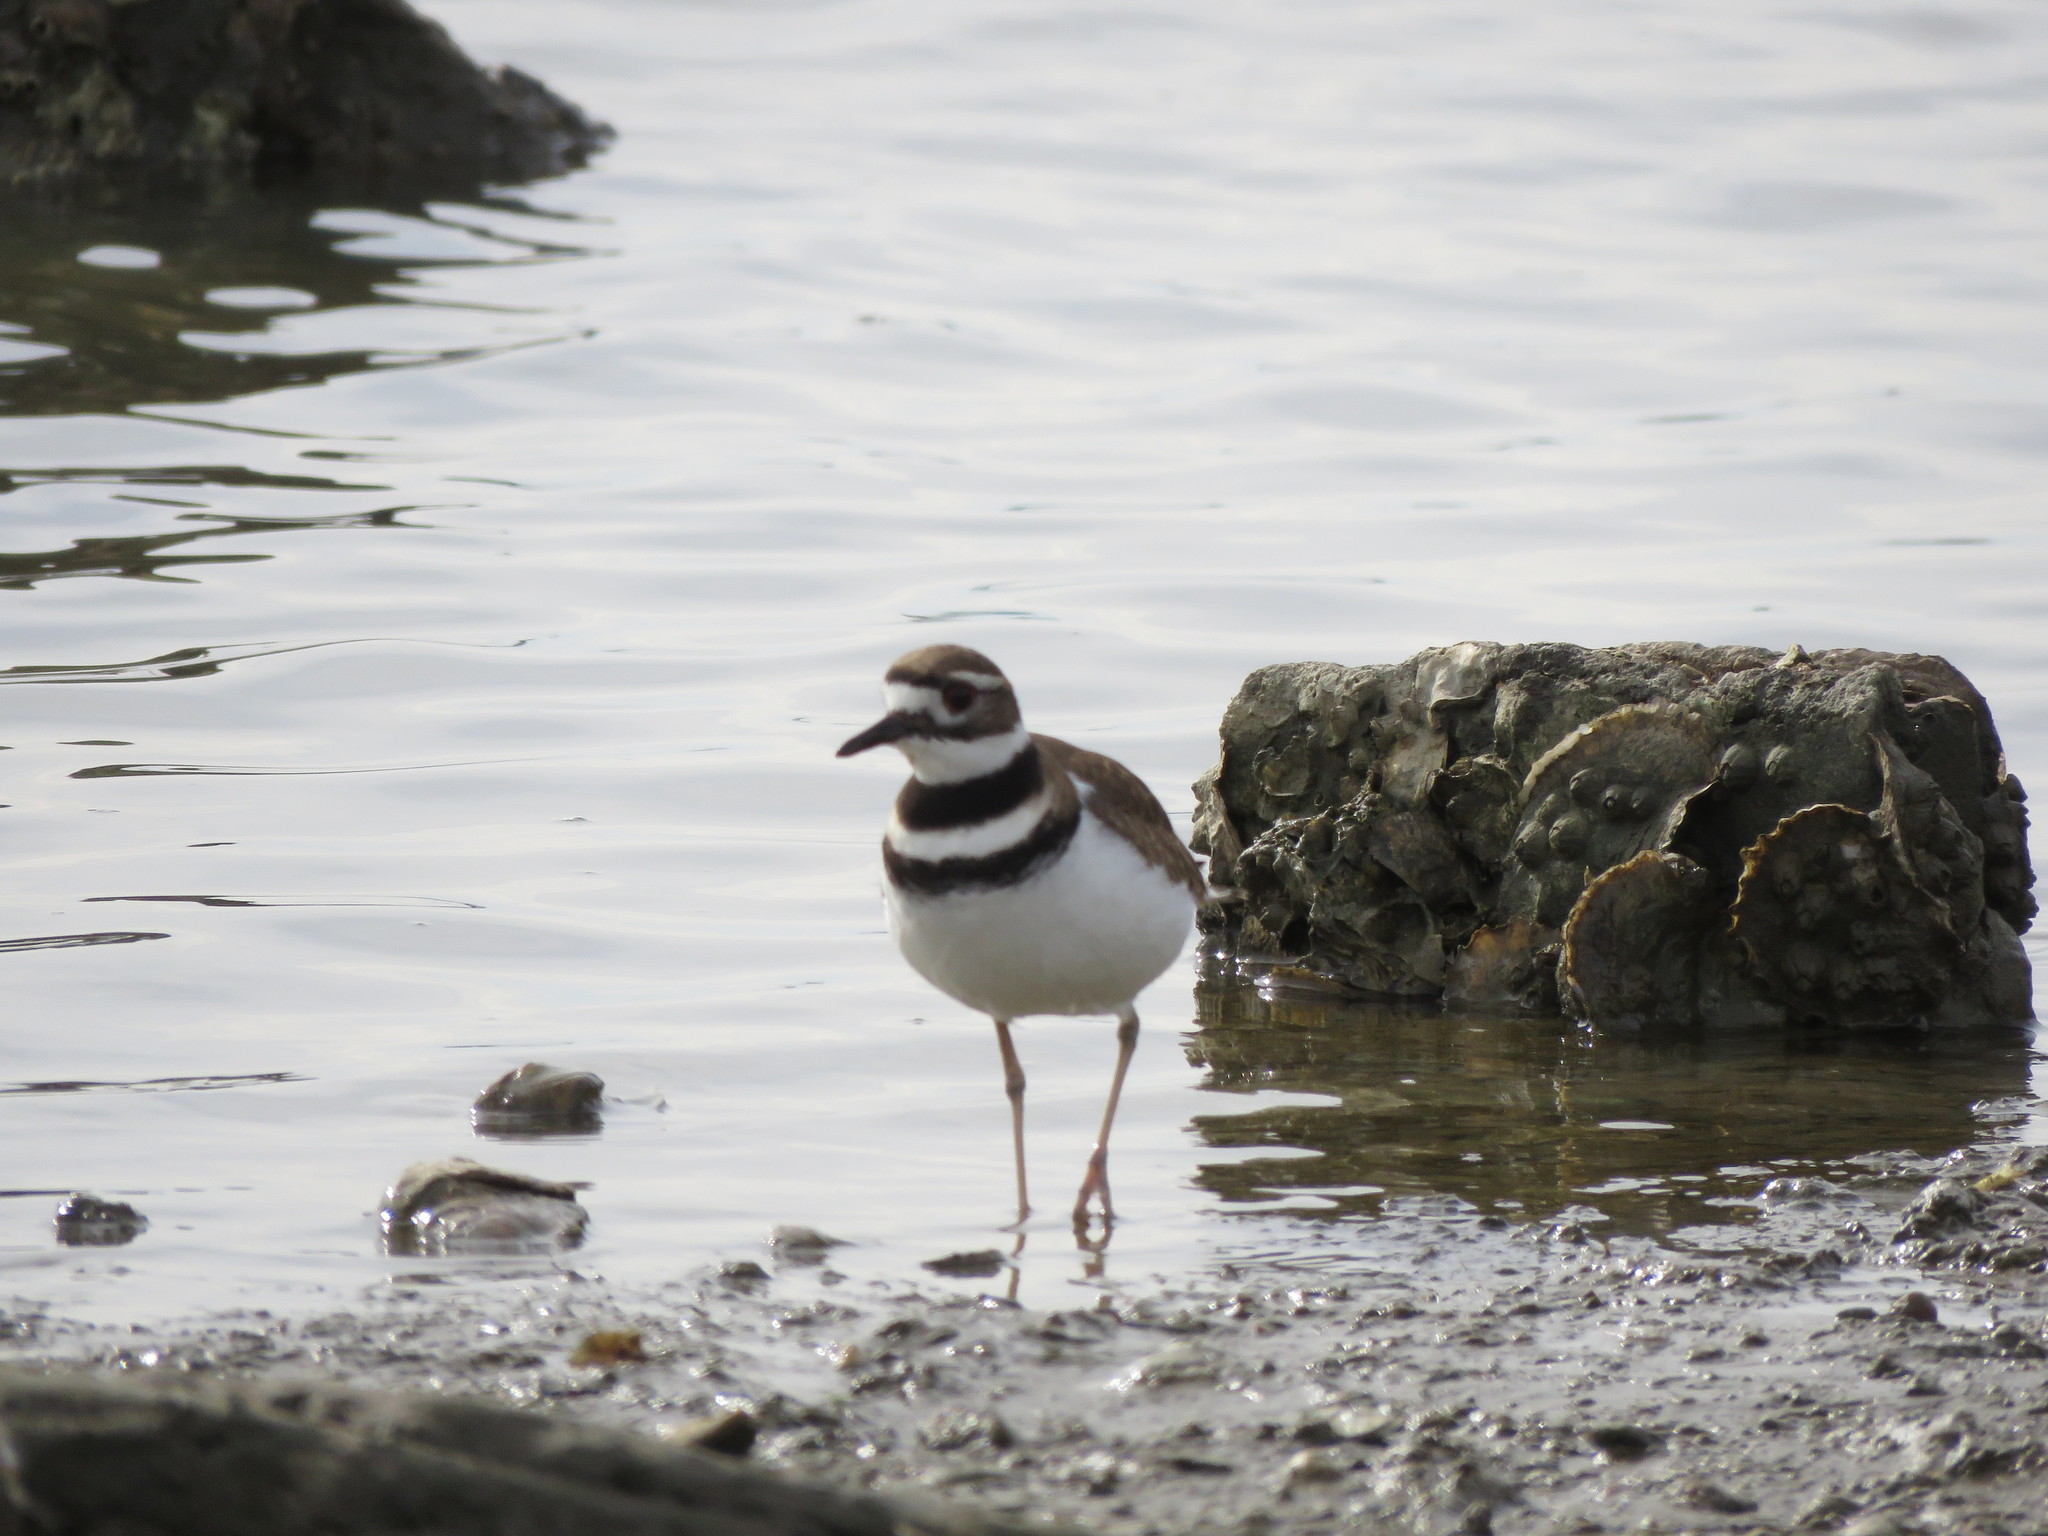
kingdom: Animalia
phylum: Chordata
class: Aves
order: Charadriiformes
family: Charadriidae
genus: Charadrius
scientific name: Charadrius vociferus
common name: Killdeer
